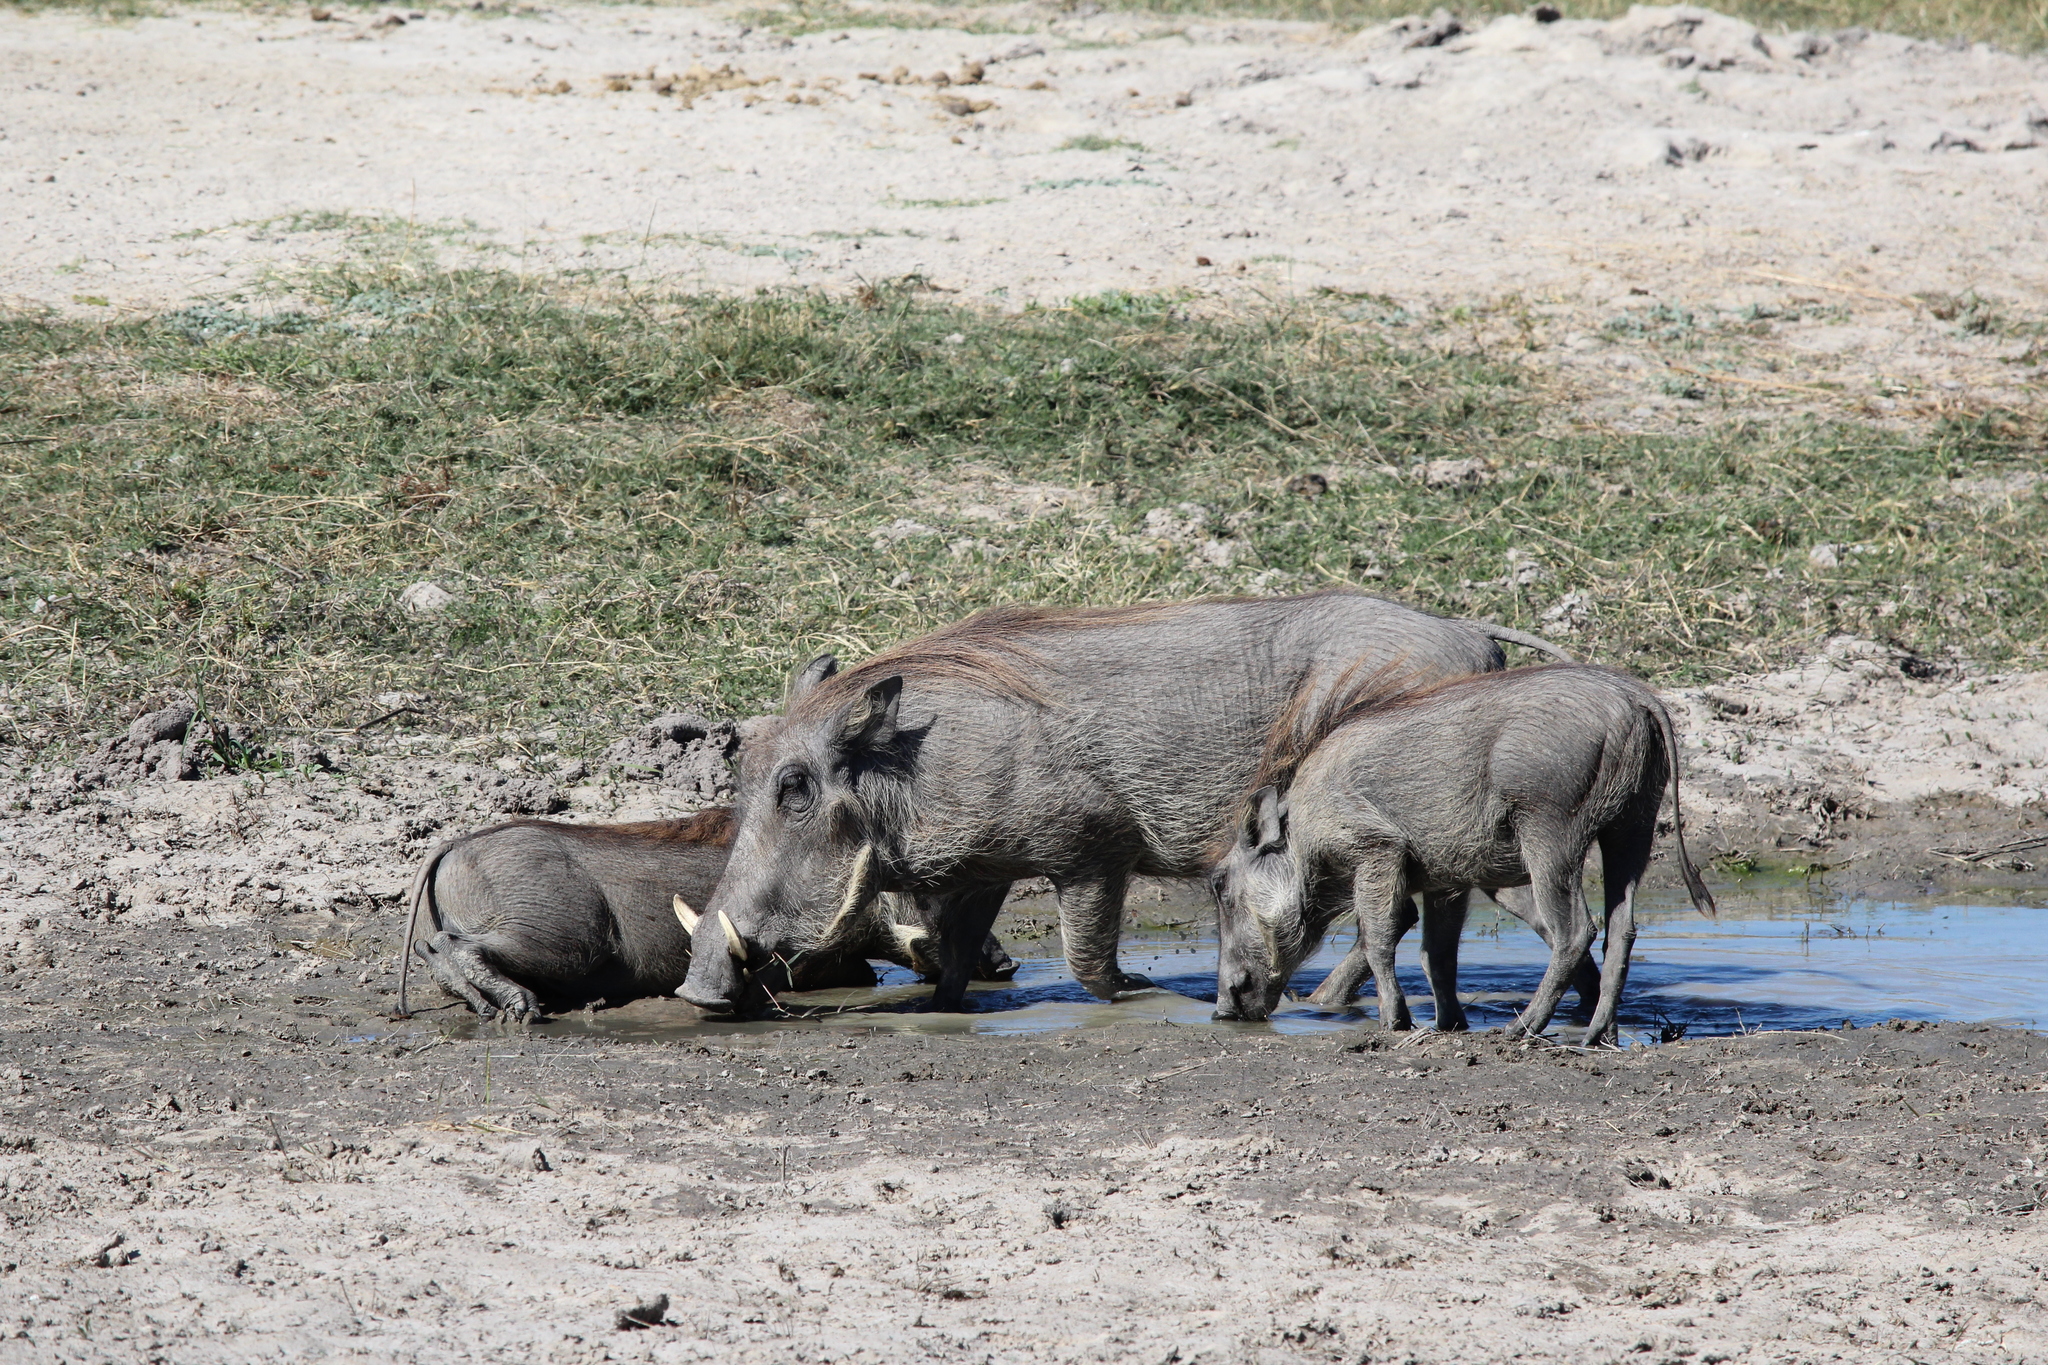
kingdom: Animalia
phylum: Chordata
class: Mammalia
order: Artiodactyla
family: Suidae
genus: Phacochoerus
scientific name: Phacochoerus africanus
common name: Common warthog
